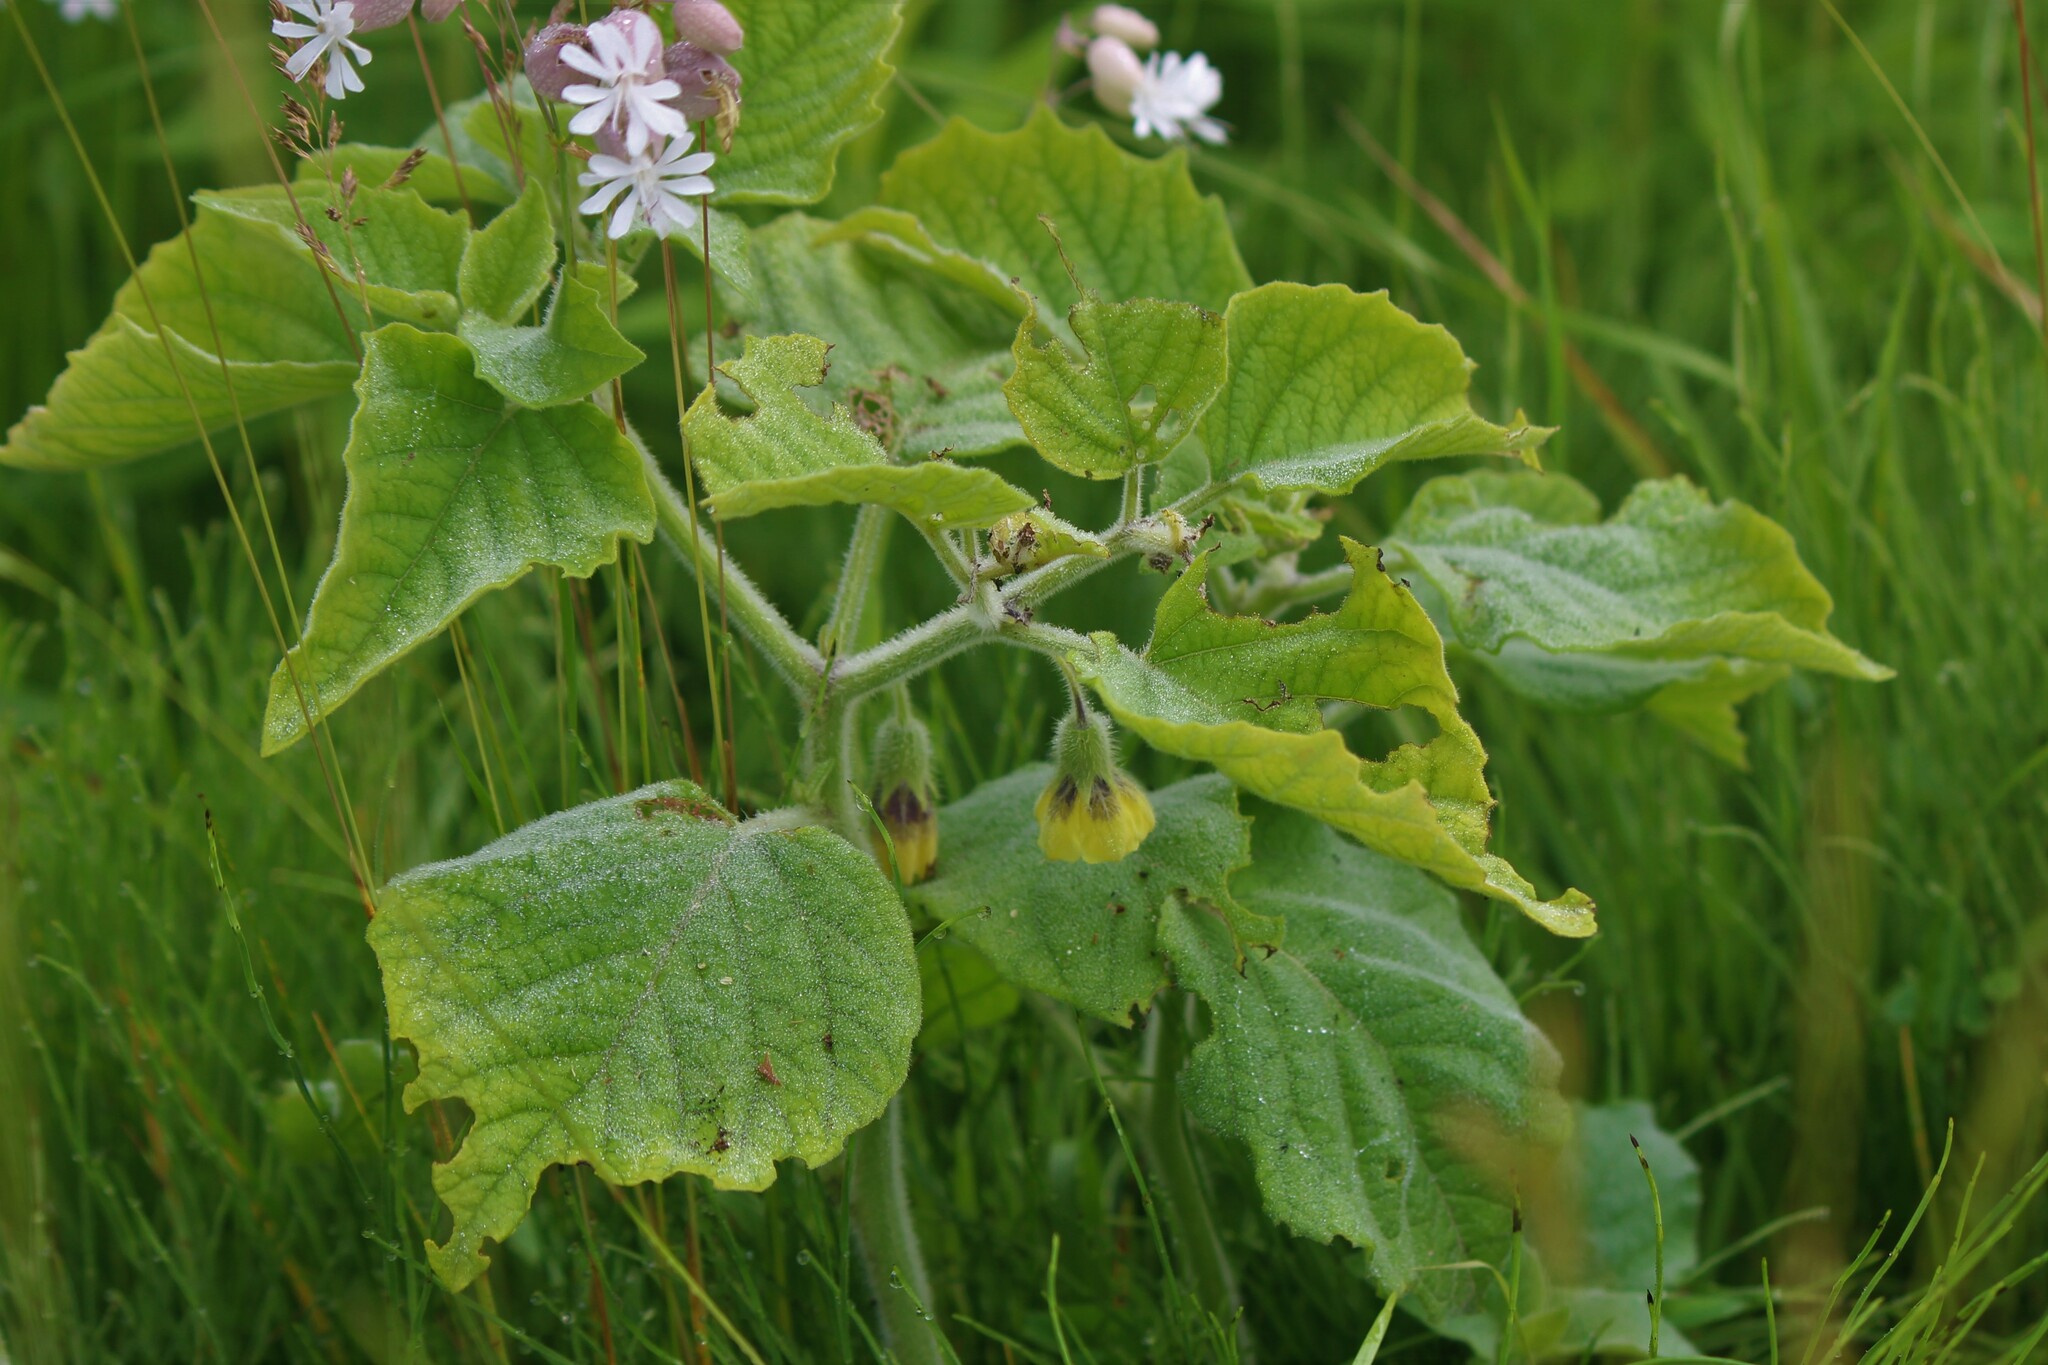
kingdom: Plantae
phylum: Tracheophyta
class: Magnoliopsida
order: Solanales
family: Solanaceae
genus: Physalis
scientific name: Physalis heterophylla
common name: Clammy ground-cherry
